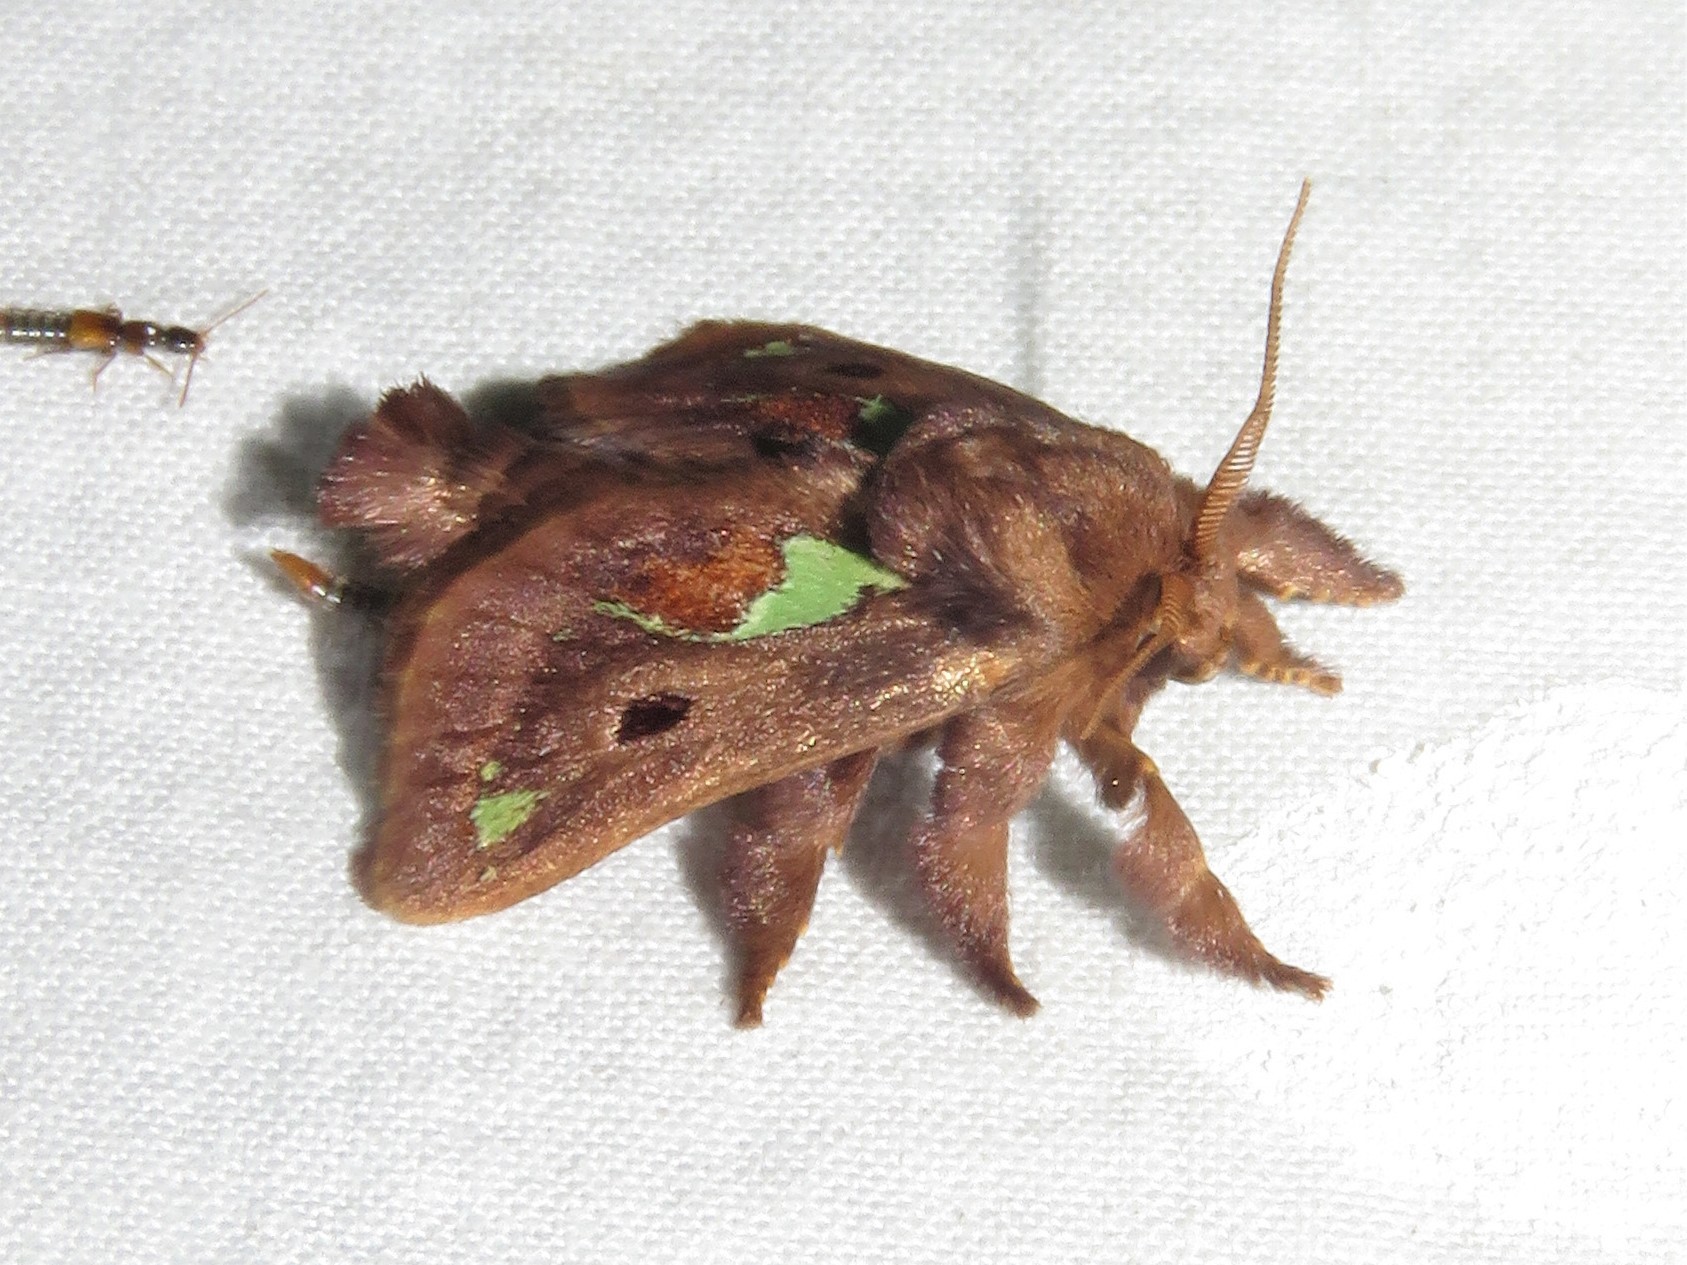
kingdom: Animalia
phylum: Arthropoda
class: Insecta
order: Lepidoptera
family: Limacodidae
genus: Euclea
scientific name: Euclea delphinii
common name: Spiny oak-slug moth
